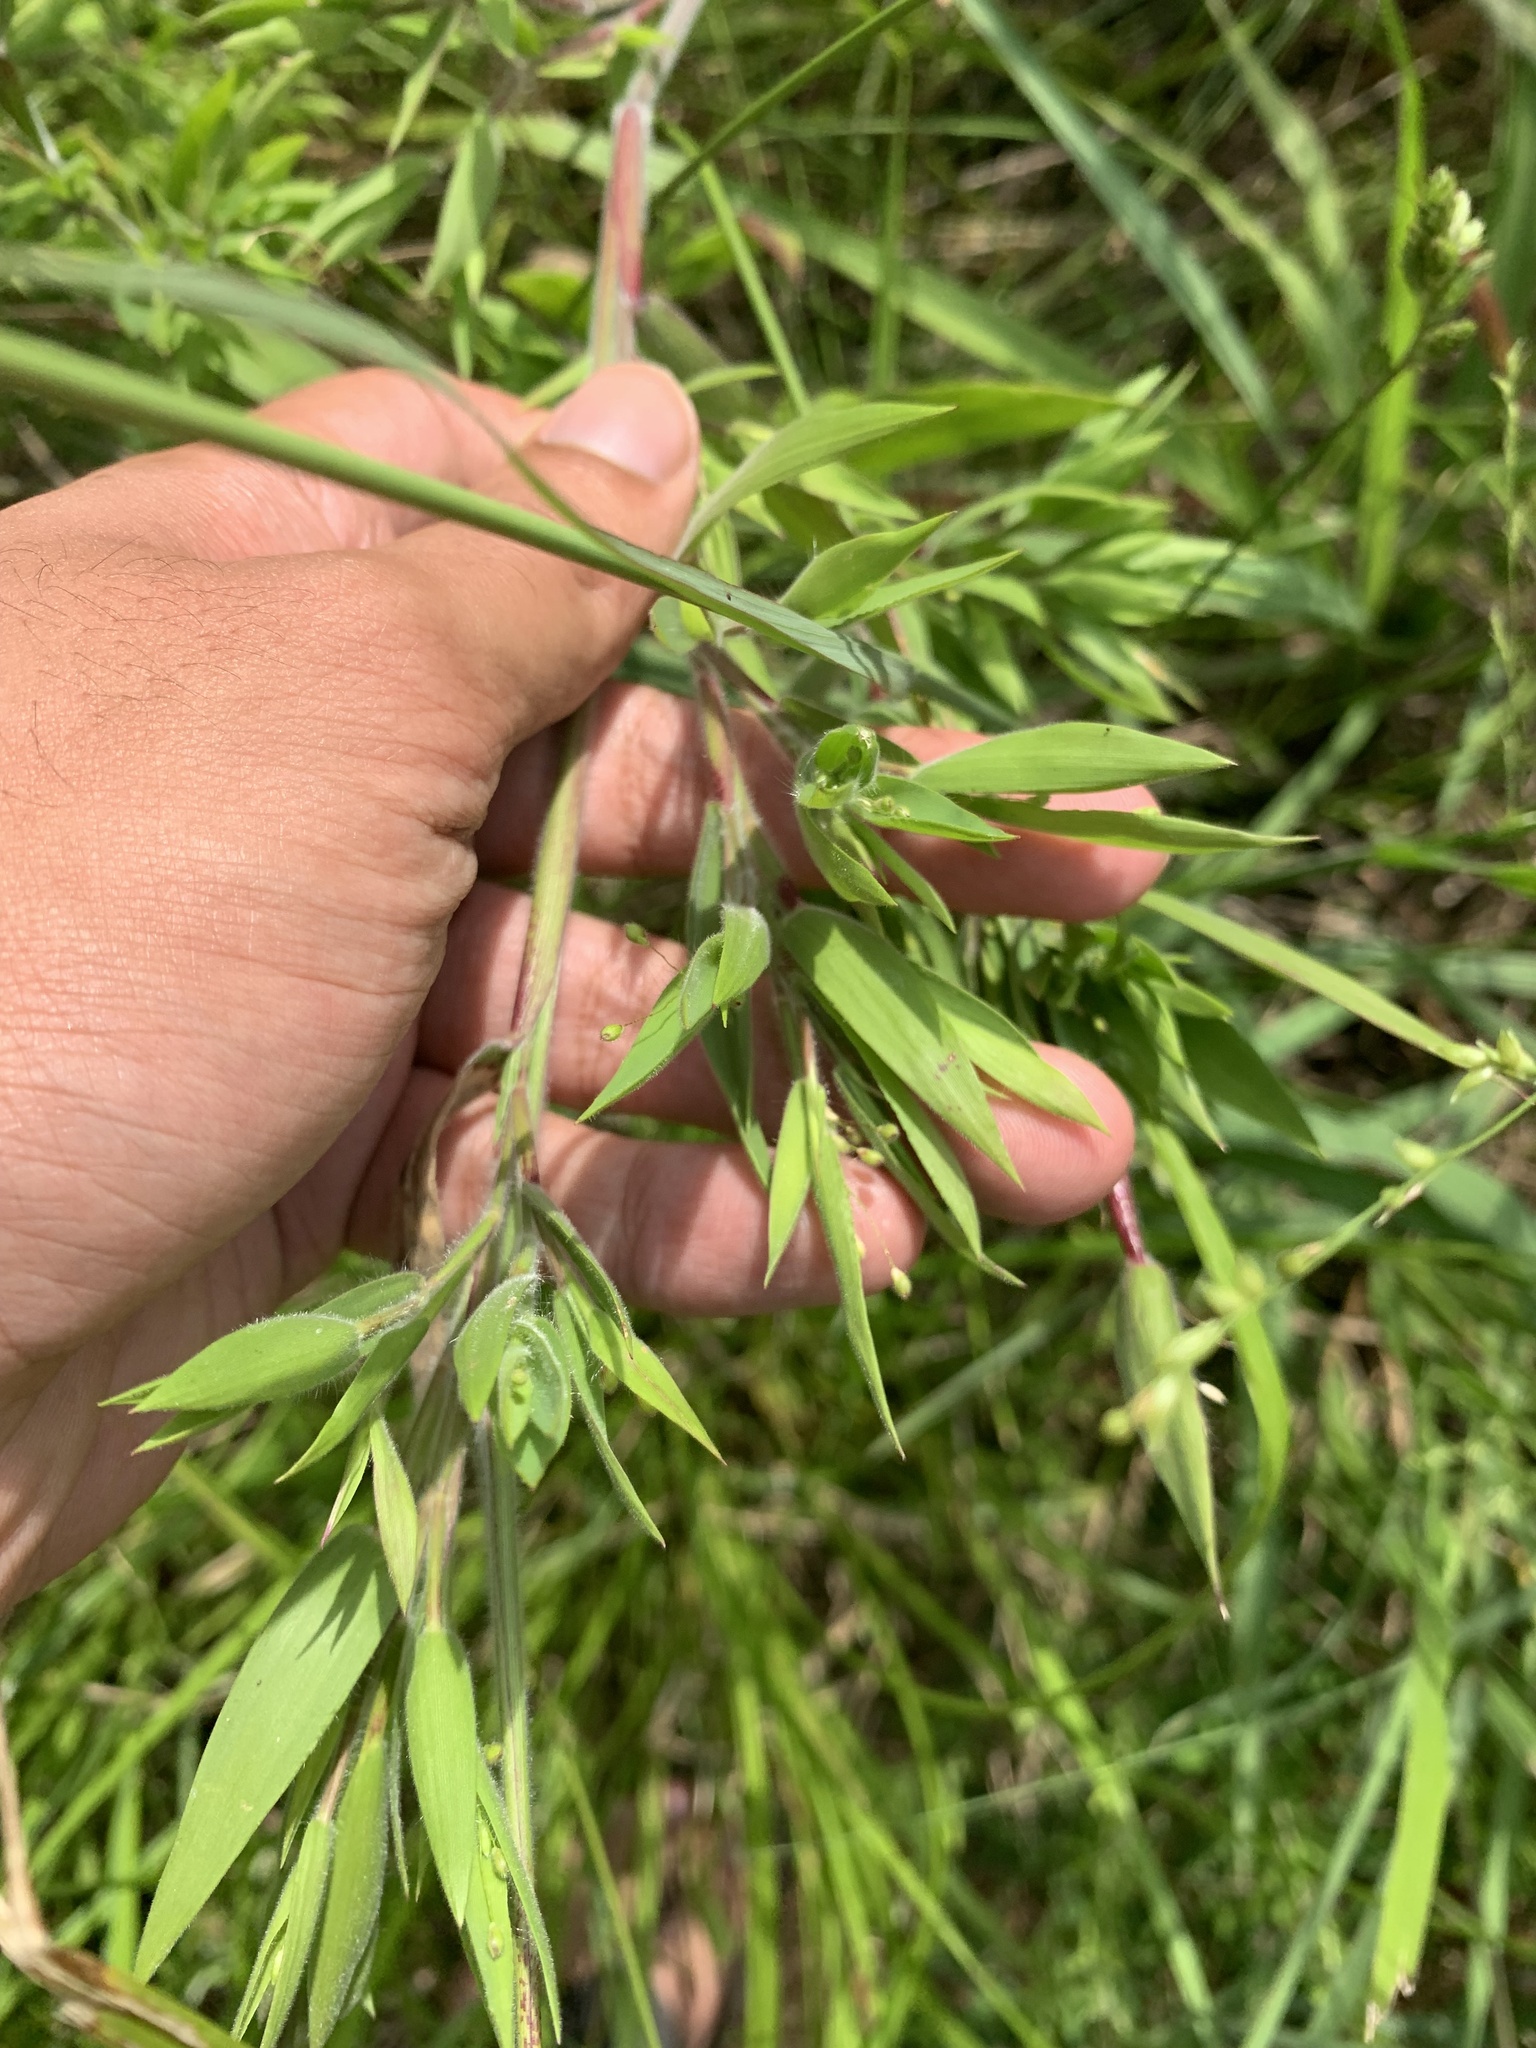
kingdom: Plantae
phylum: Tracheophyta
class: Liliopsida
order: Poales
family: Poaceae
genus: Dichanthelium
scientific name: Dichanthelium scoparium
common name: Velvety panic grass
